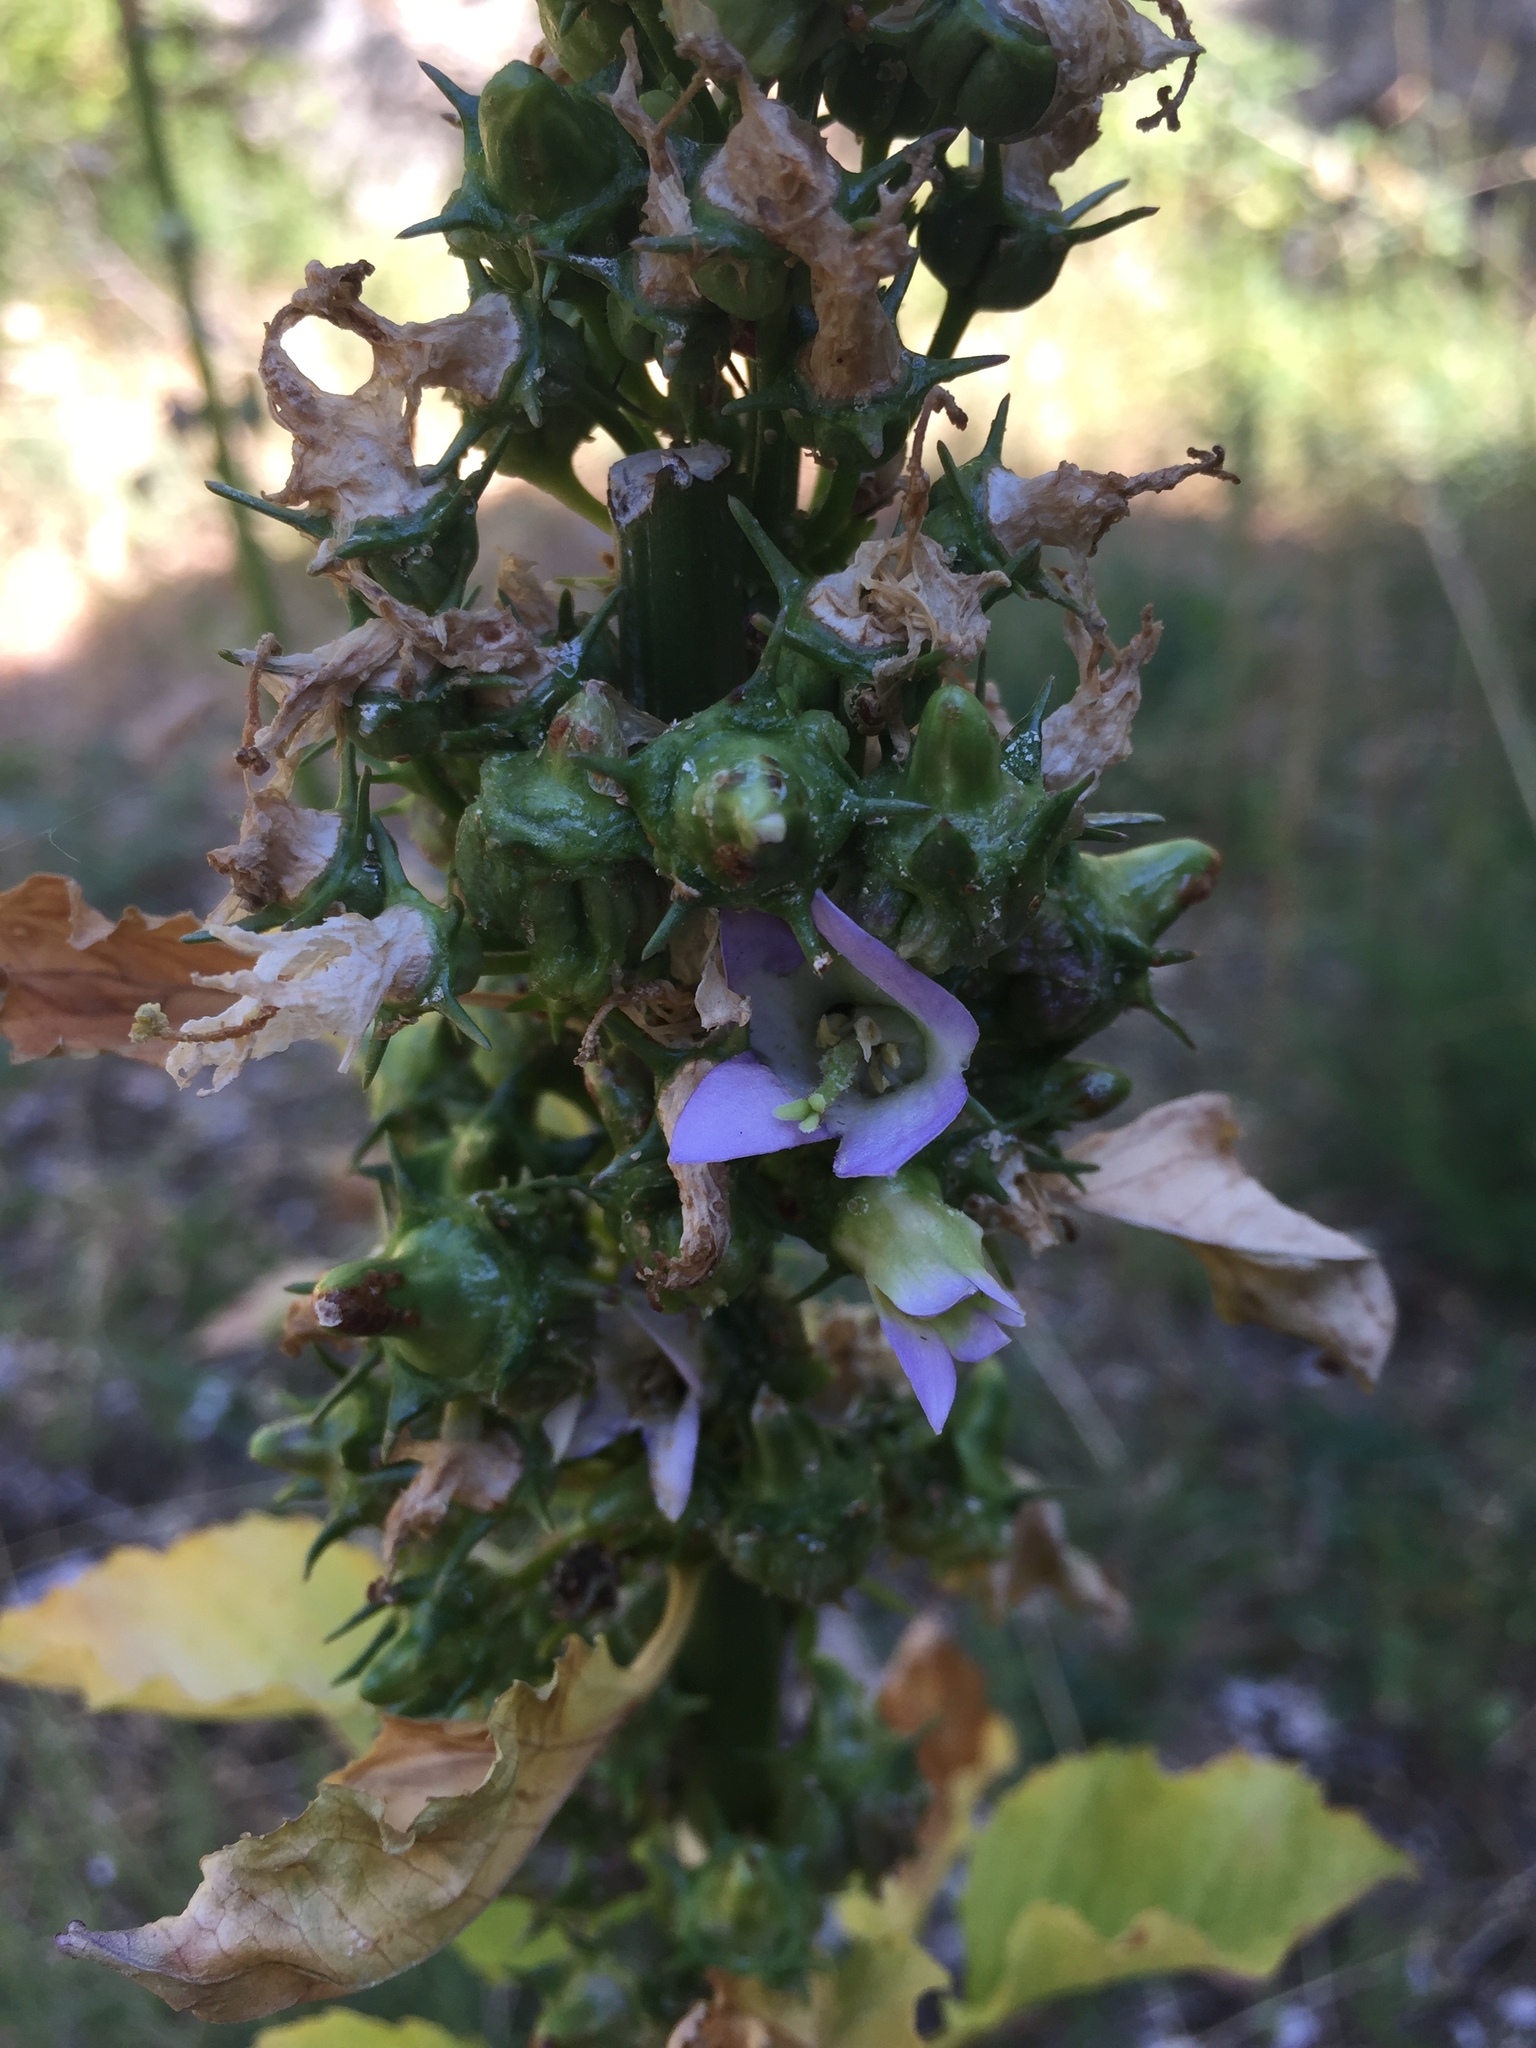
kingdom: Plantae
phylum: Tracheophyta
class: Magnoliopsida
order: Asterales
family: Campanulaceae
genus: Campanula
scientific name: Campanula pyramidalis
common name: Chimney bellflower
